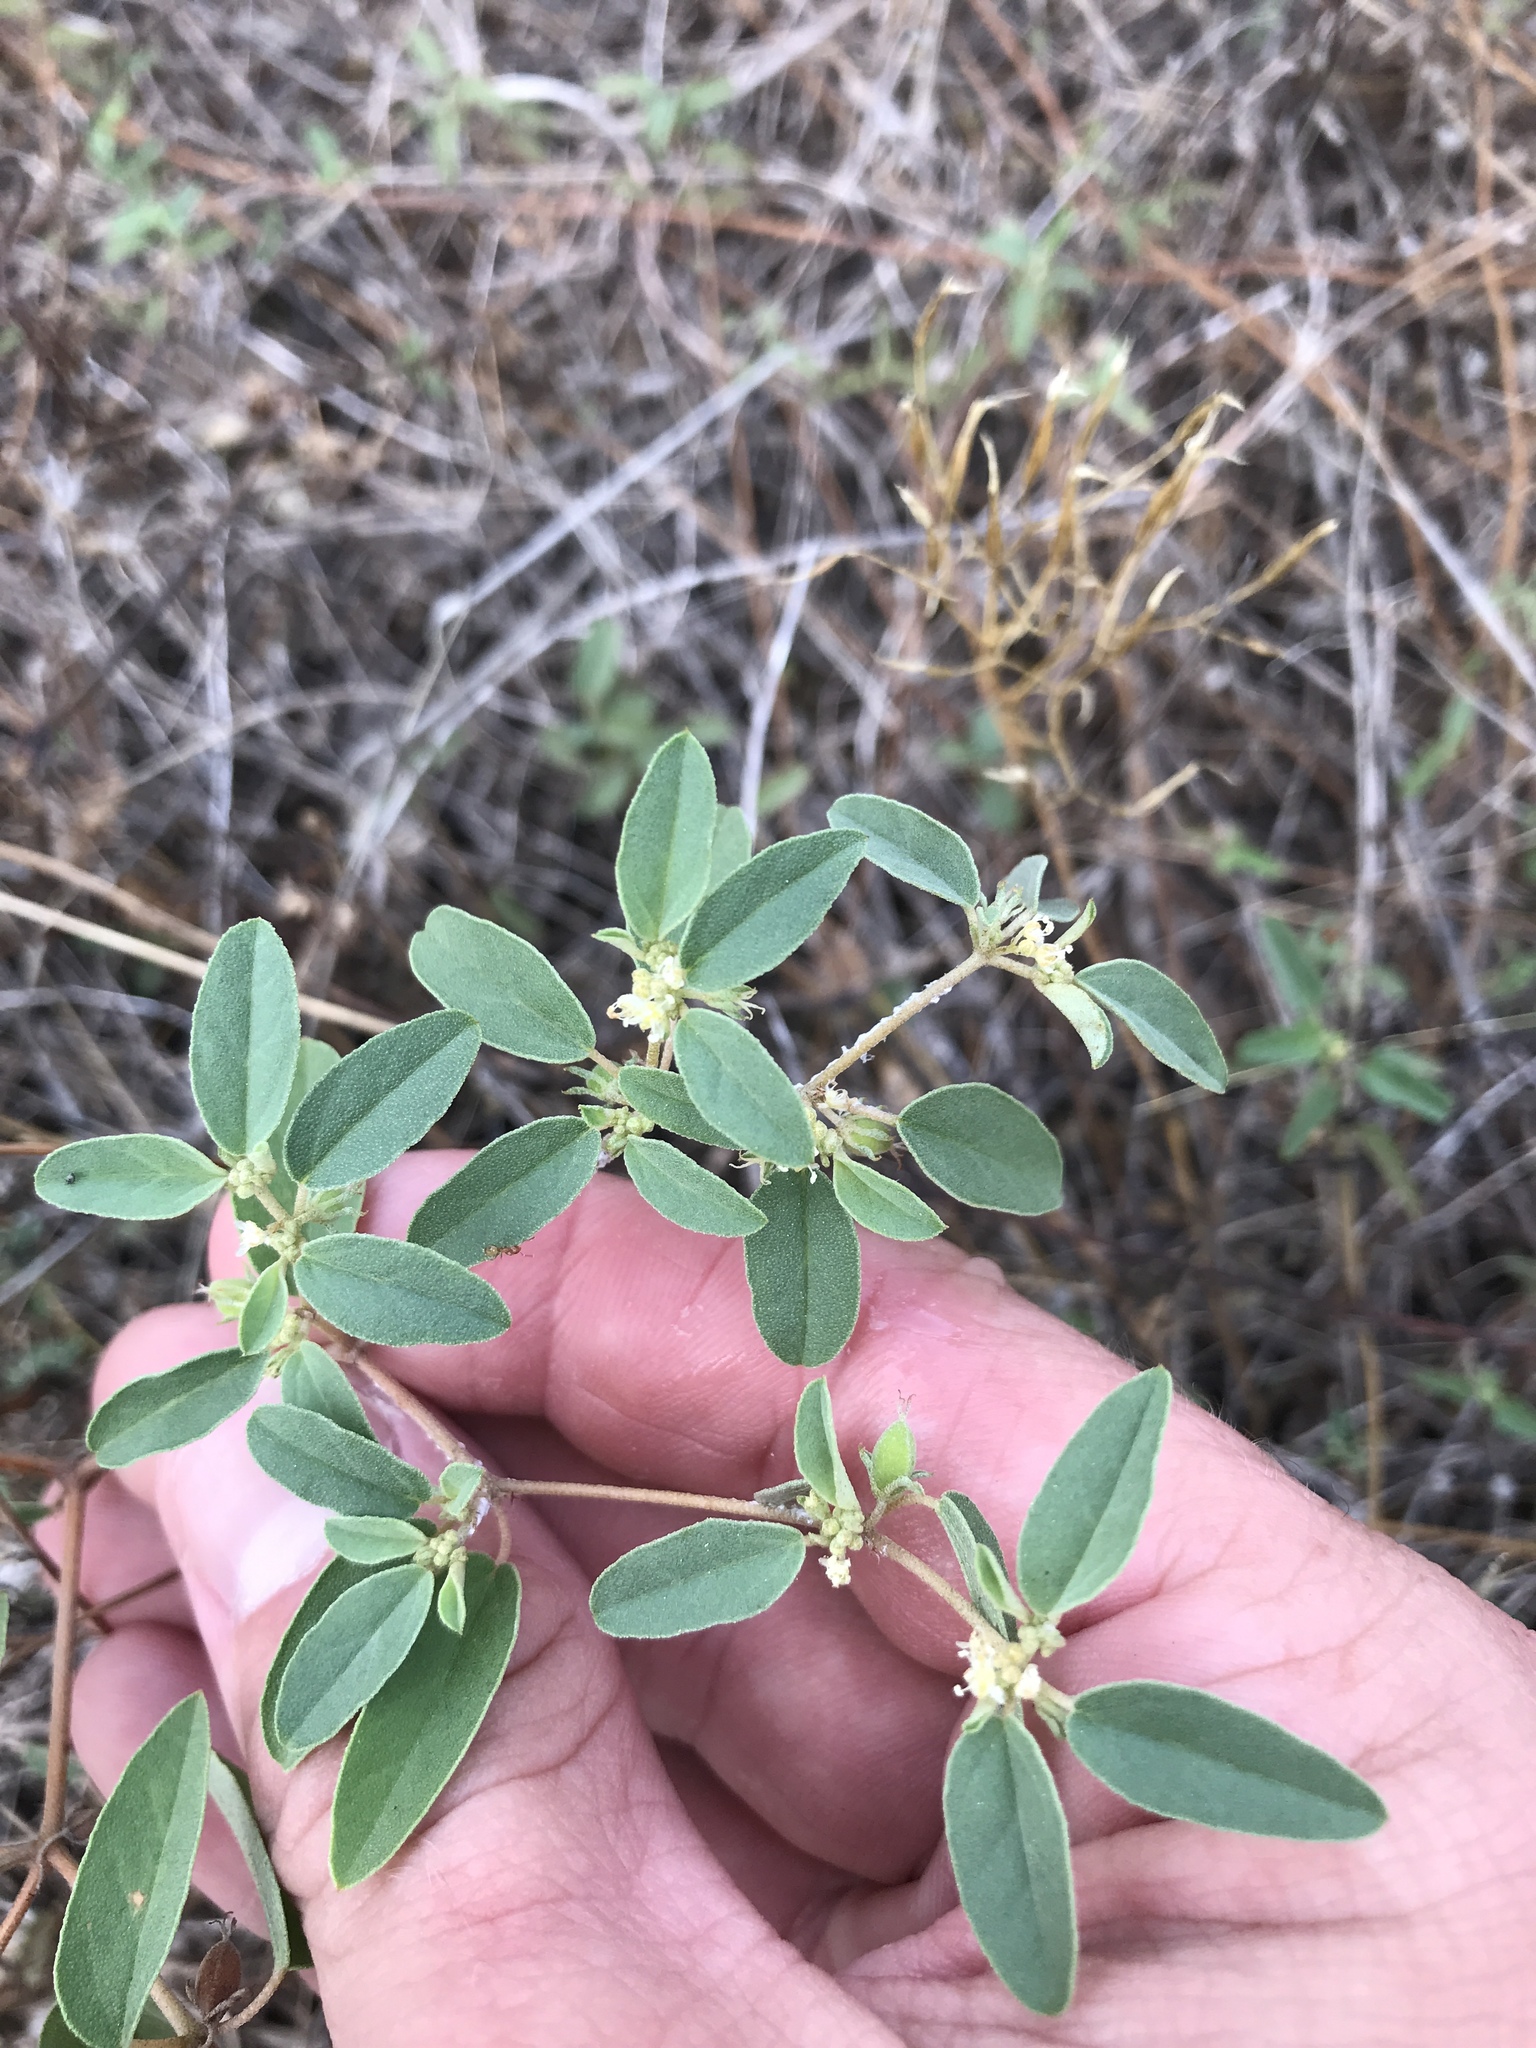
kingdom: Plantae
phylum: Tracheophyta
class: Magnoliopsida
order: Malpighiales
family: Euphorbiaceae
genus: Croton
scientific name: Croton monanthogynus
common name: One-seed croton
